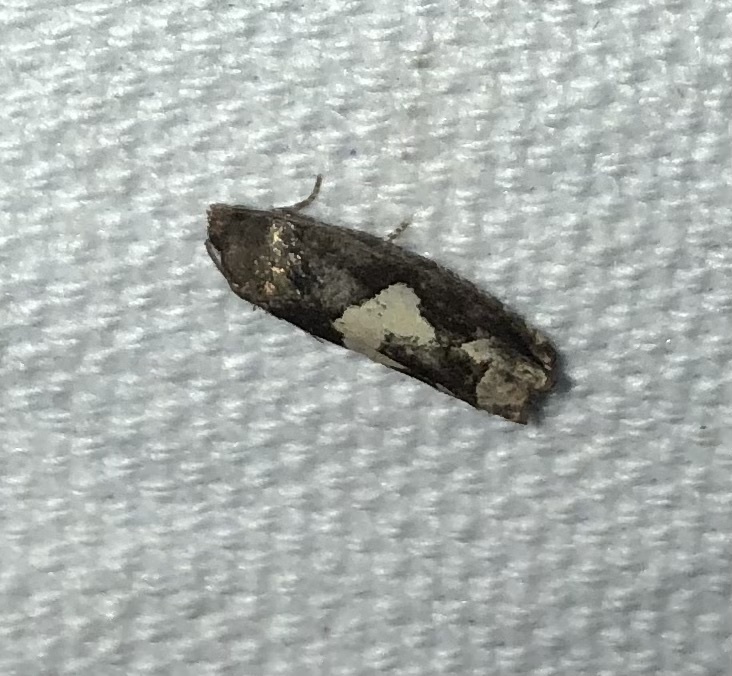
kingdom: Animalia
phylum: Arthropoda
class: Insecta
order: Lepidoptera
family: Tortricidae
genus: Epiblema
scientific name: Epiblema otiosana
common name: Bidens borer moth
